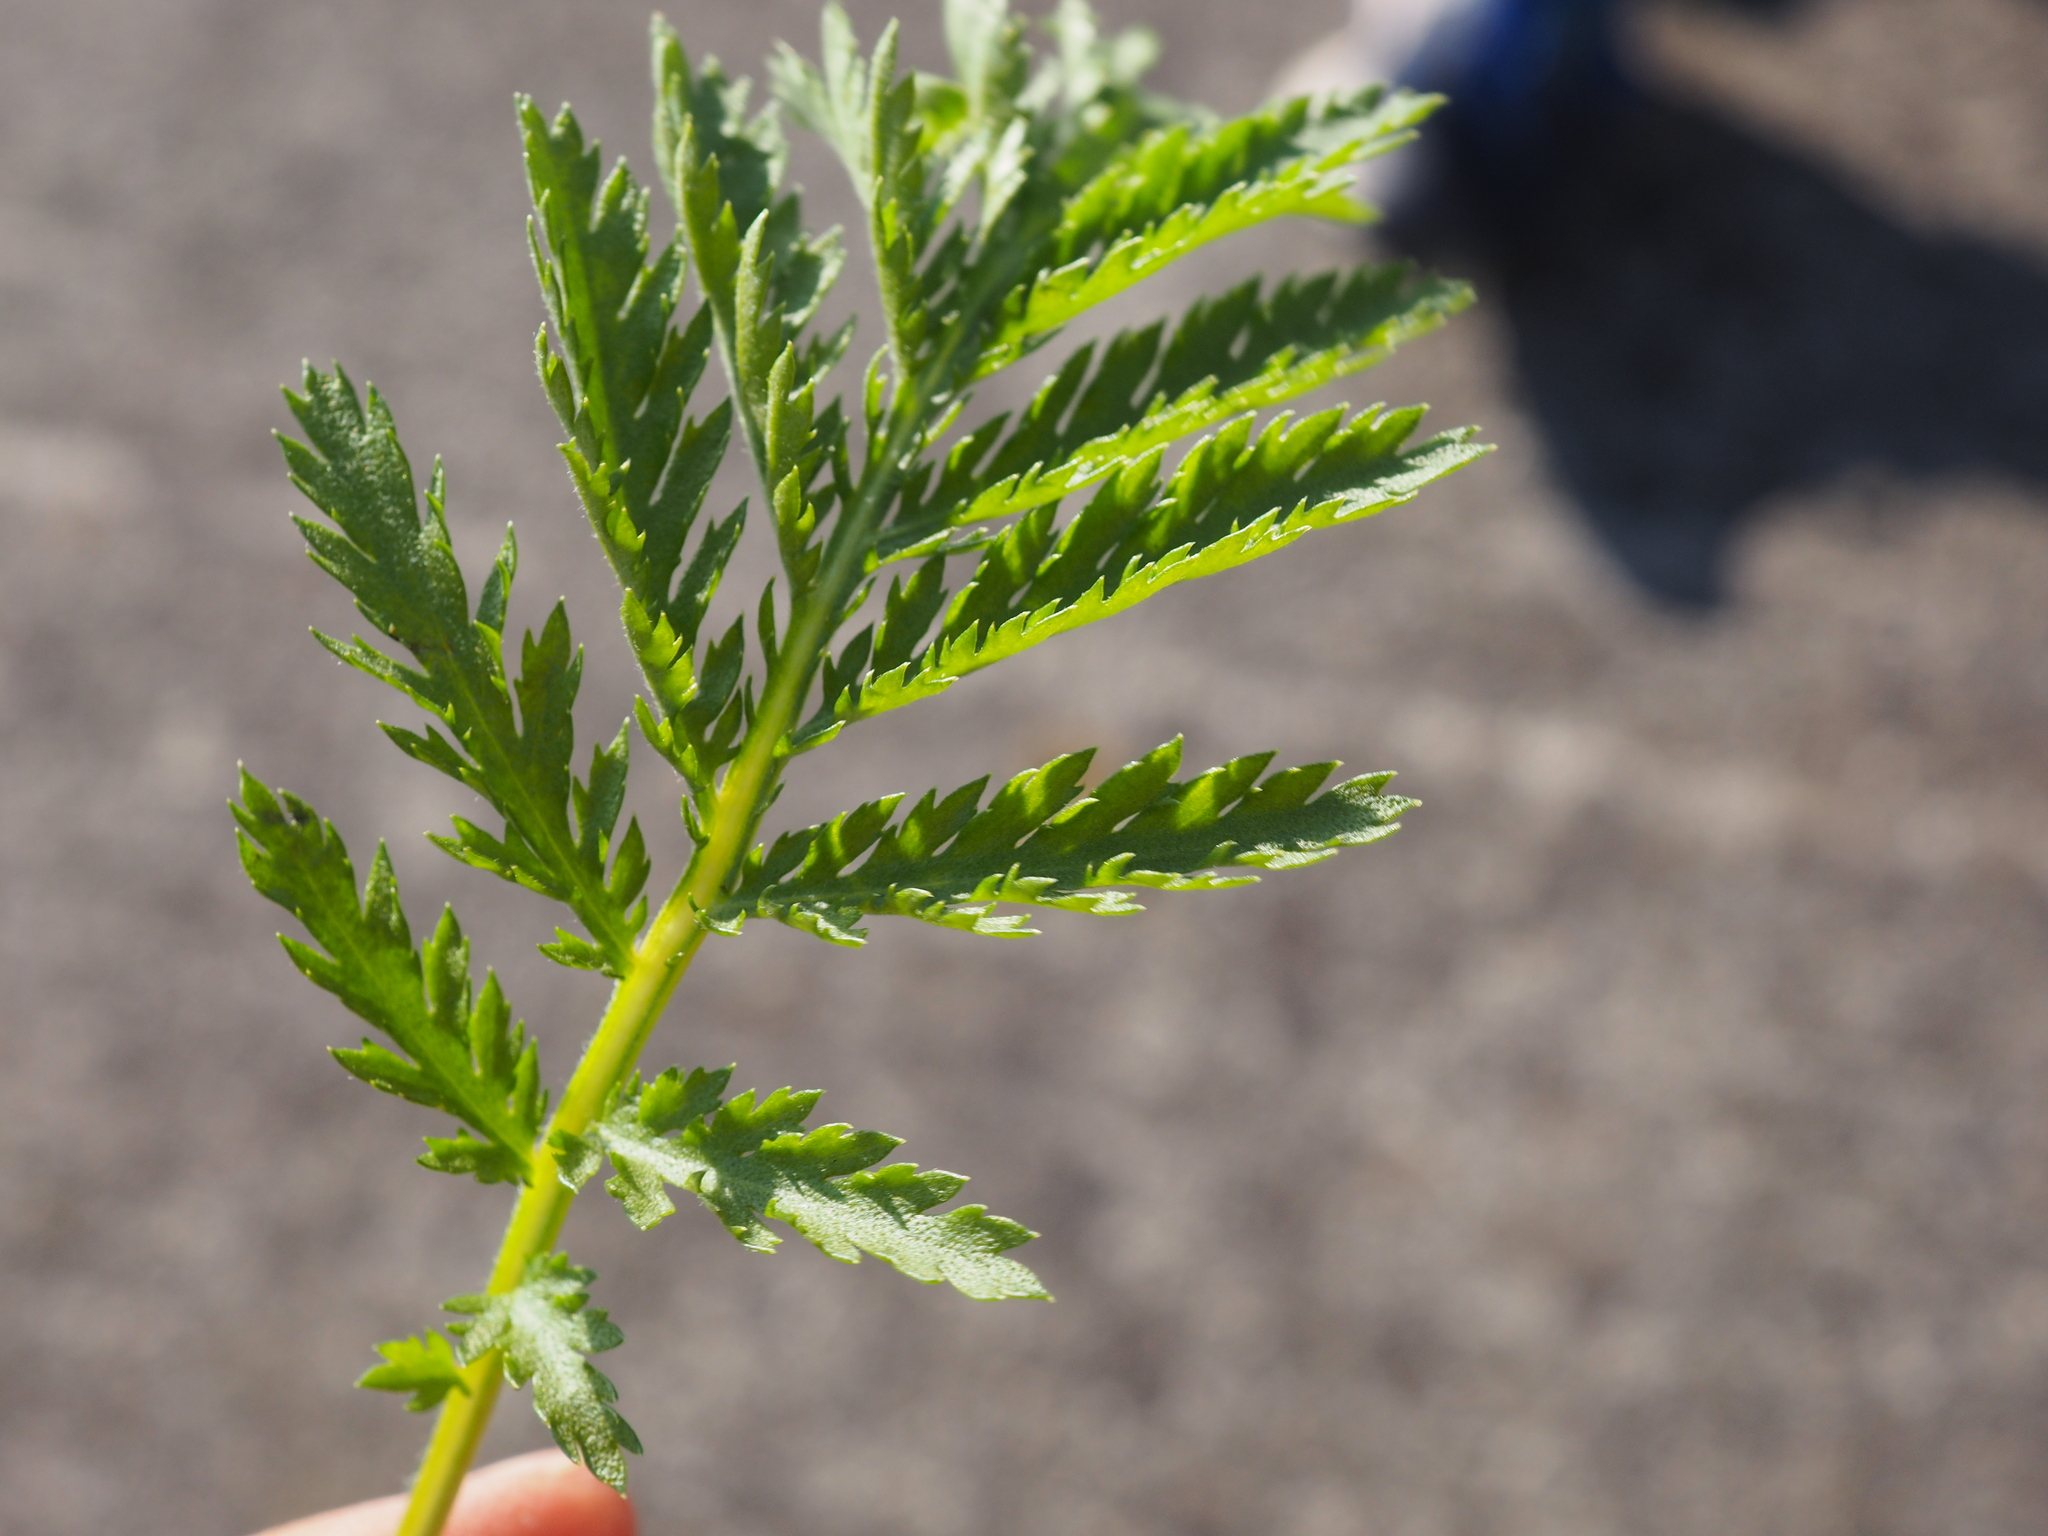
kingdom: Plantae
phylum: Tracheophyta
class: Magnoliopsida
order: Asterales
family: Asteraceae
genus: Tanacetum
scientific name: Tanacetum vulgare
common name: Common tansy
